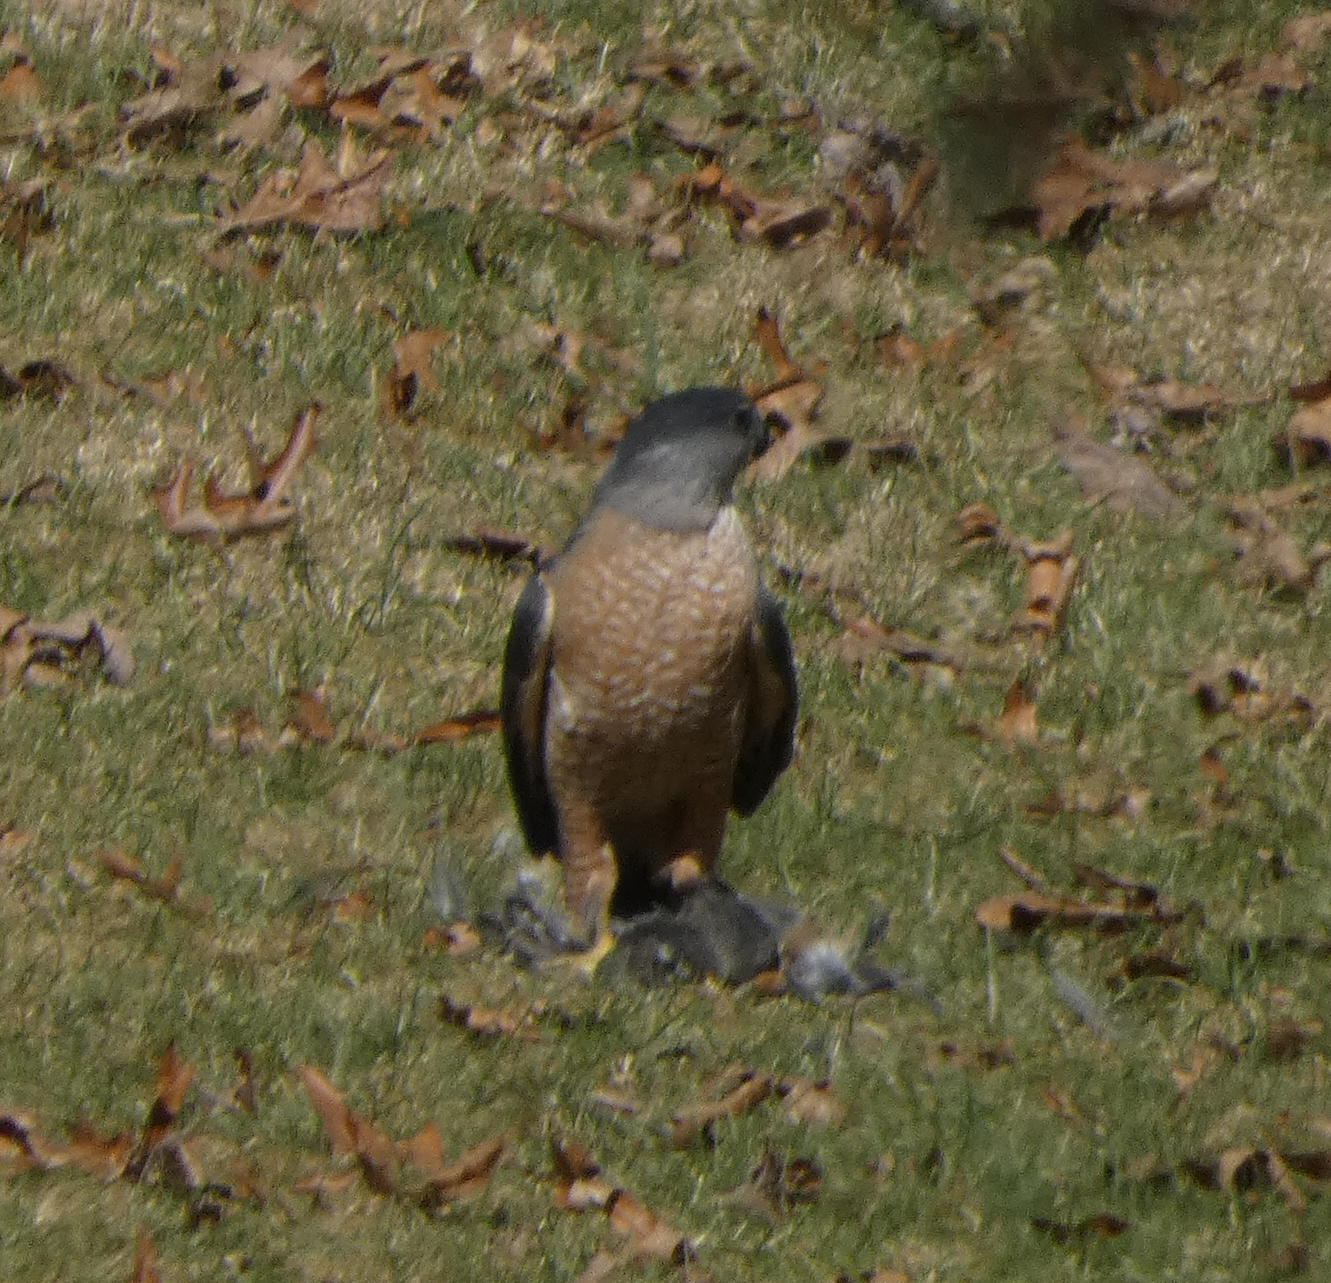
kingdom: Animalia
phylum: Chordata
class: Aves
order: Accipitriformes
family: Accipitridae
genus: Accipiter
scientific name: Accipiter cooperii
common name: Cooper's hawk
